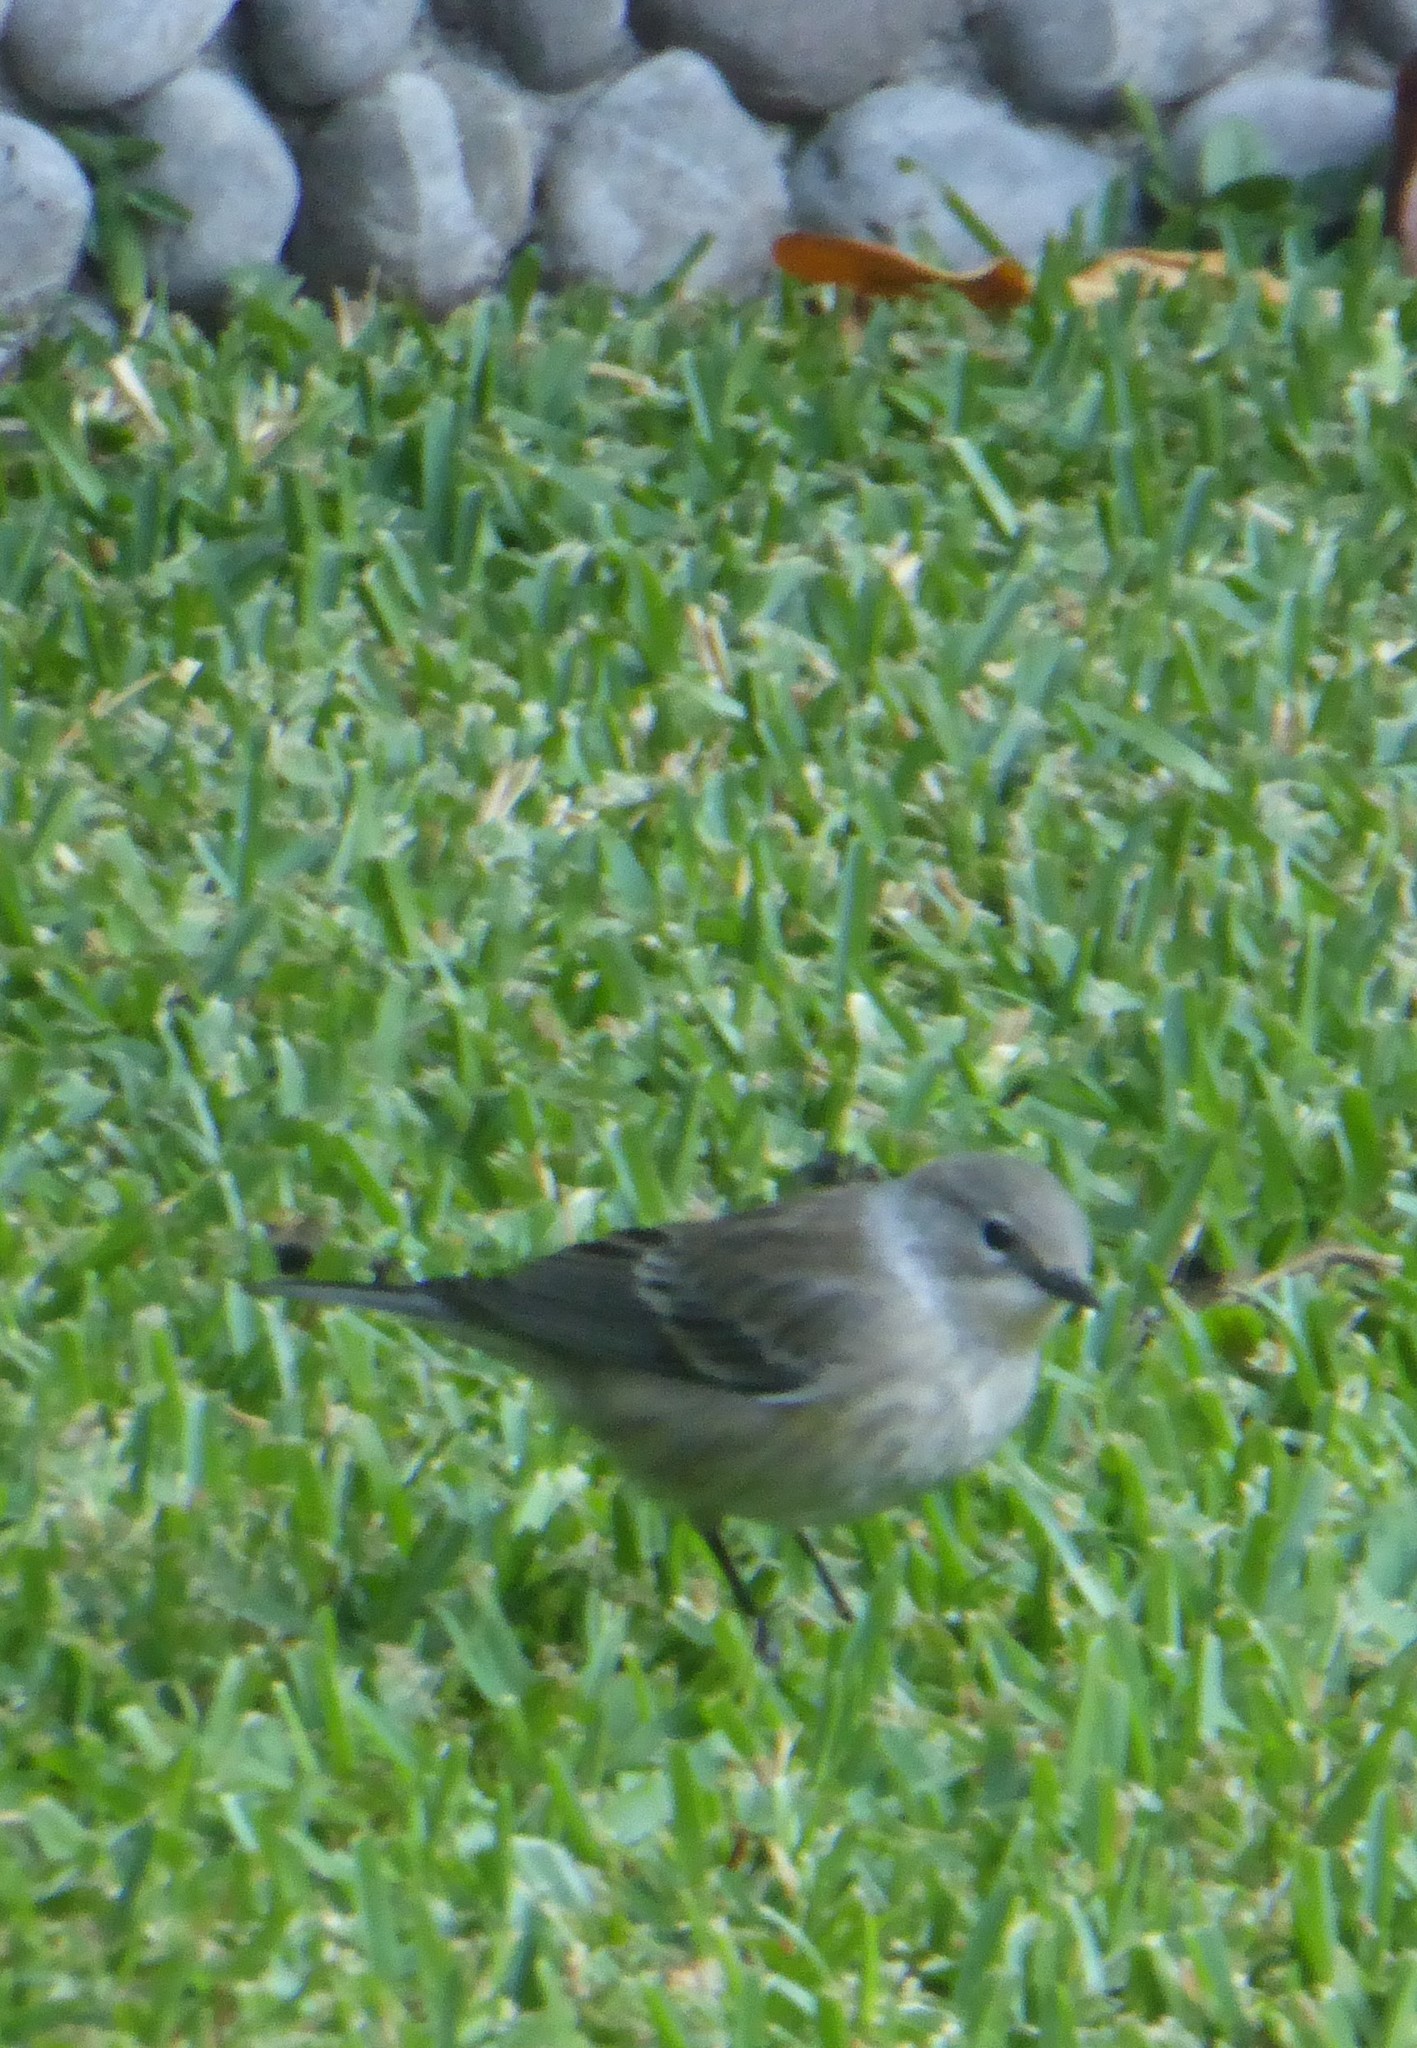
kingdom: Animalia
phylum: Chordata
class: Aves
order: Passeriformes
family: Parulidae
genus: Setophaga
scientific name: Setophaga coronata
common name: Myrtle warbler
